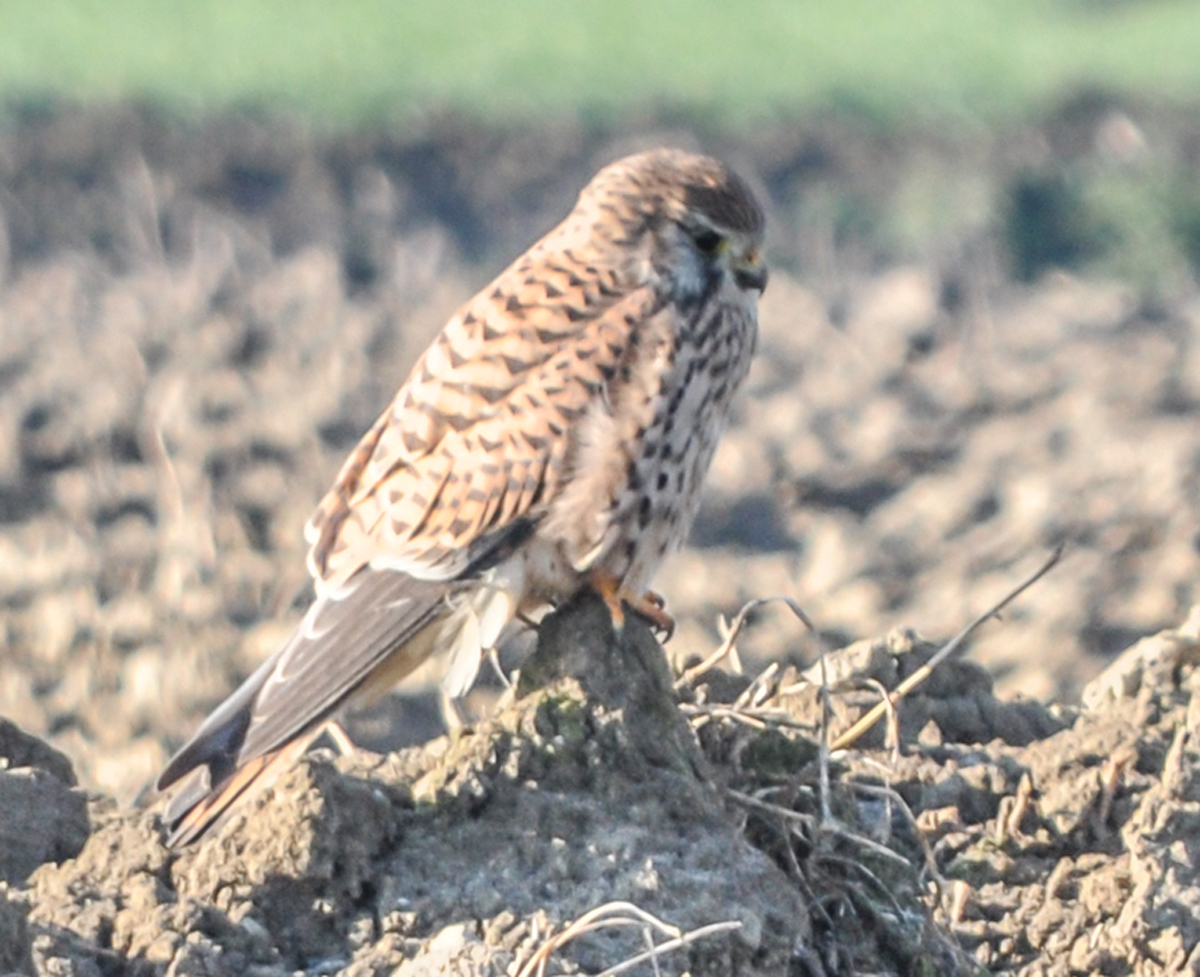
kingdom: Animalia
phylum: Chordata
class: Aves
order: Falconiformes
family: Falconidae
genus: Falco
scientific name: Falco tinnunculus
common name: Common kestrel
